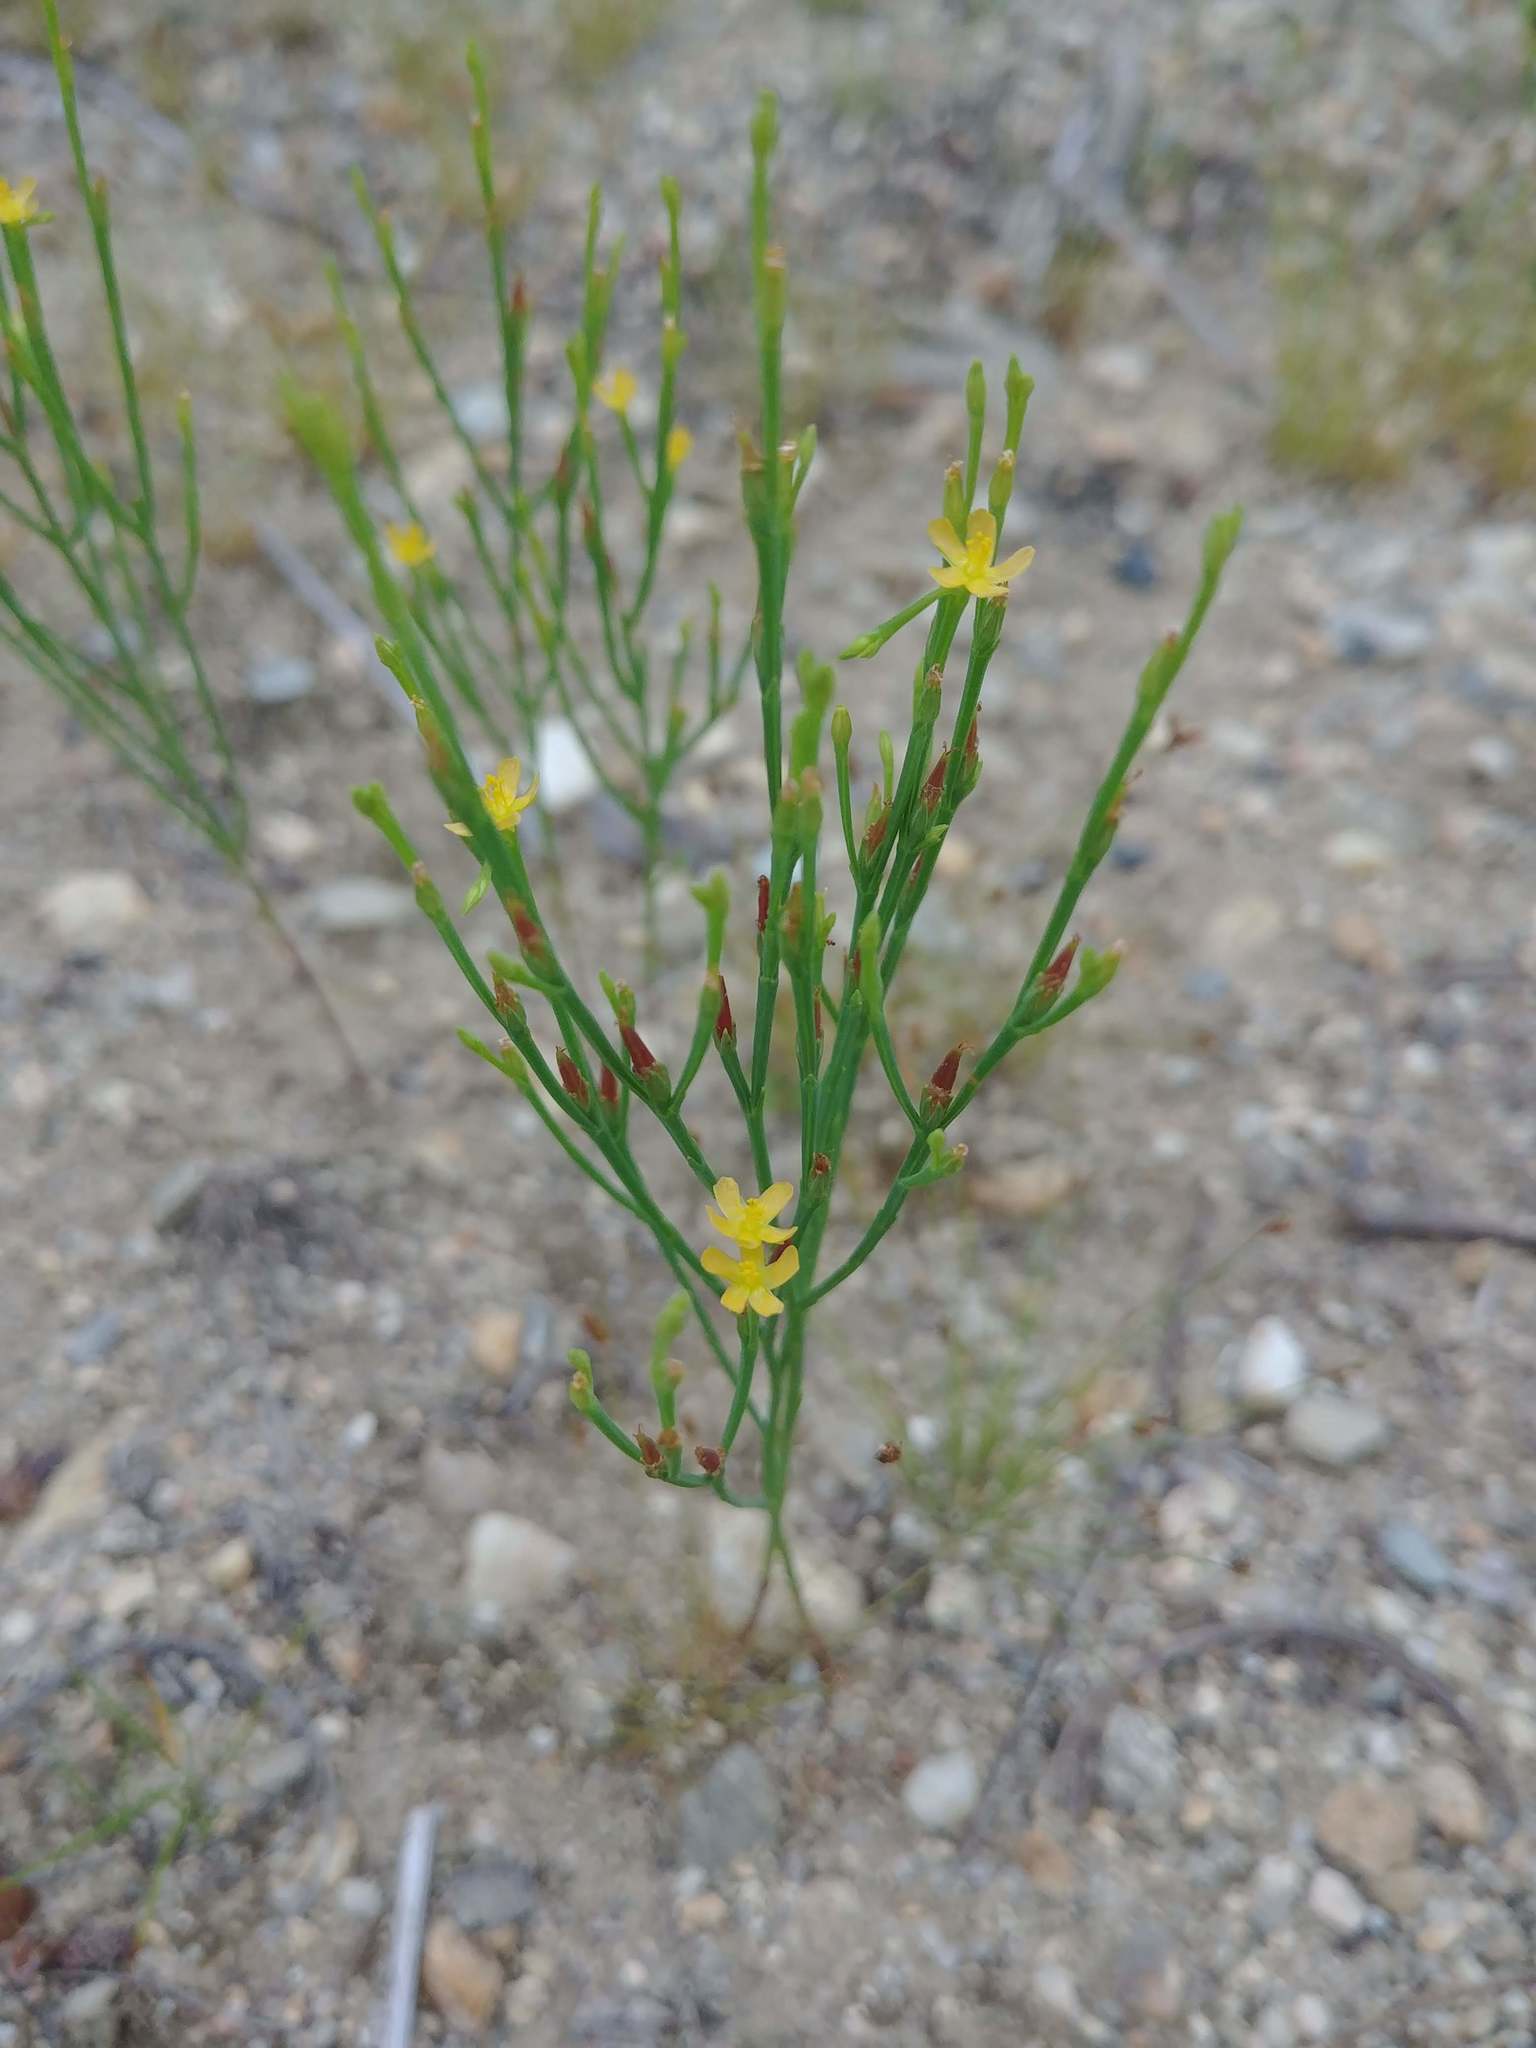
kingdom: Plantae
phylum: Tracheophyta
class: Magnoliopsida
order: Malpighiales
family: Hypericaceae
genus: Hypericum
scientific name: Hypericum gentianoides
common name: Gentian-leaved st. john's-wort
